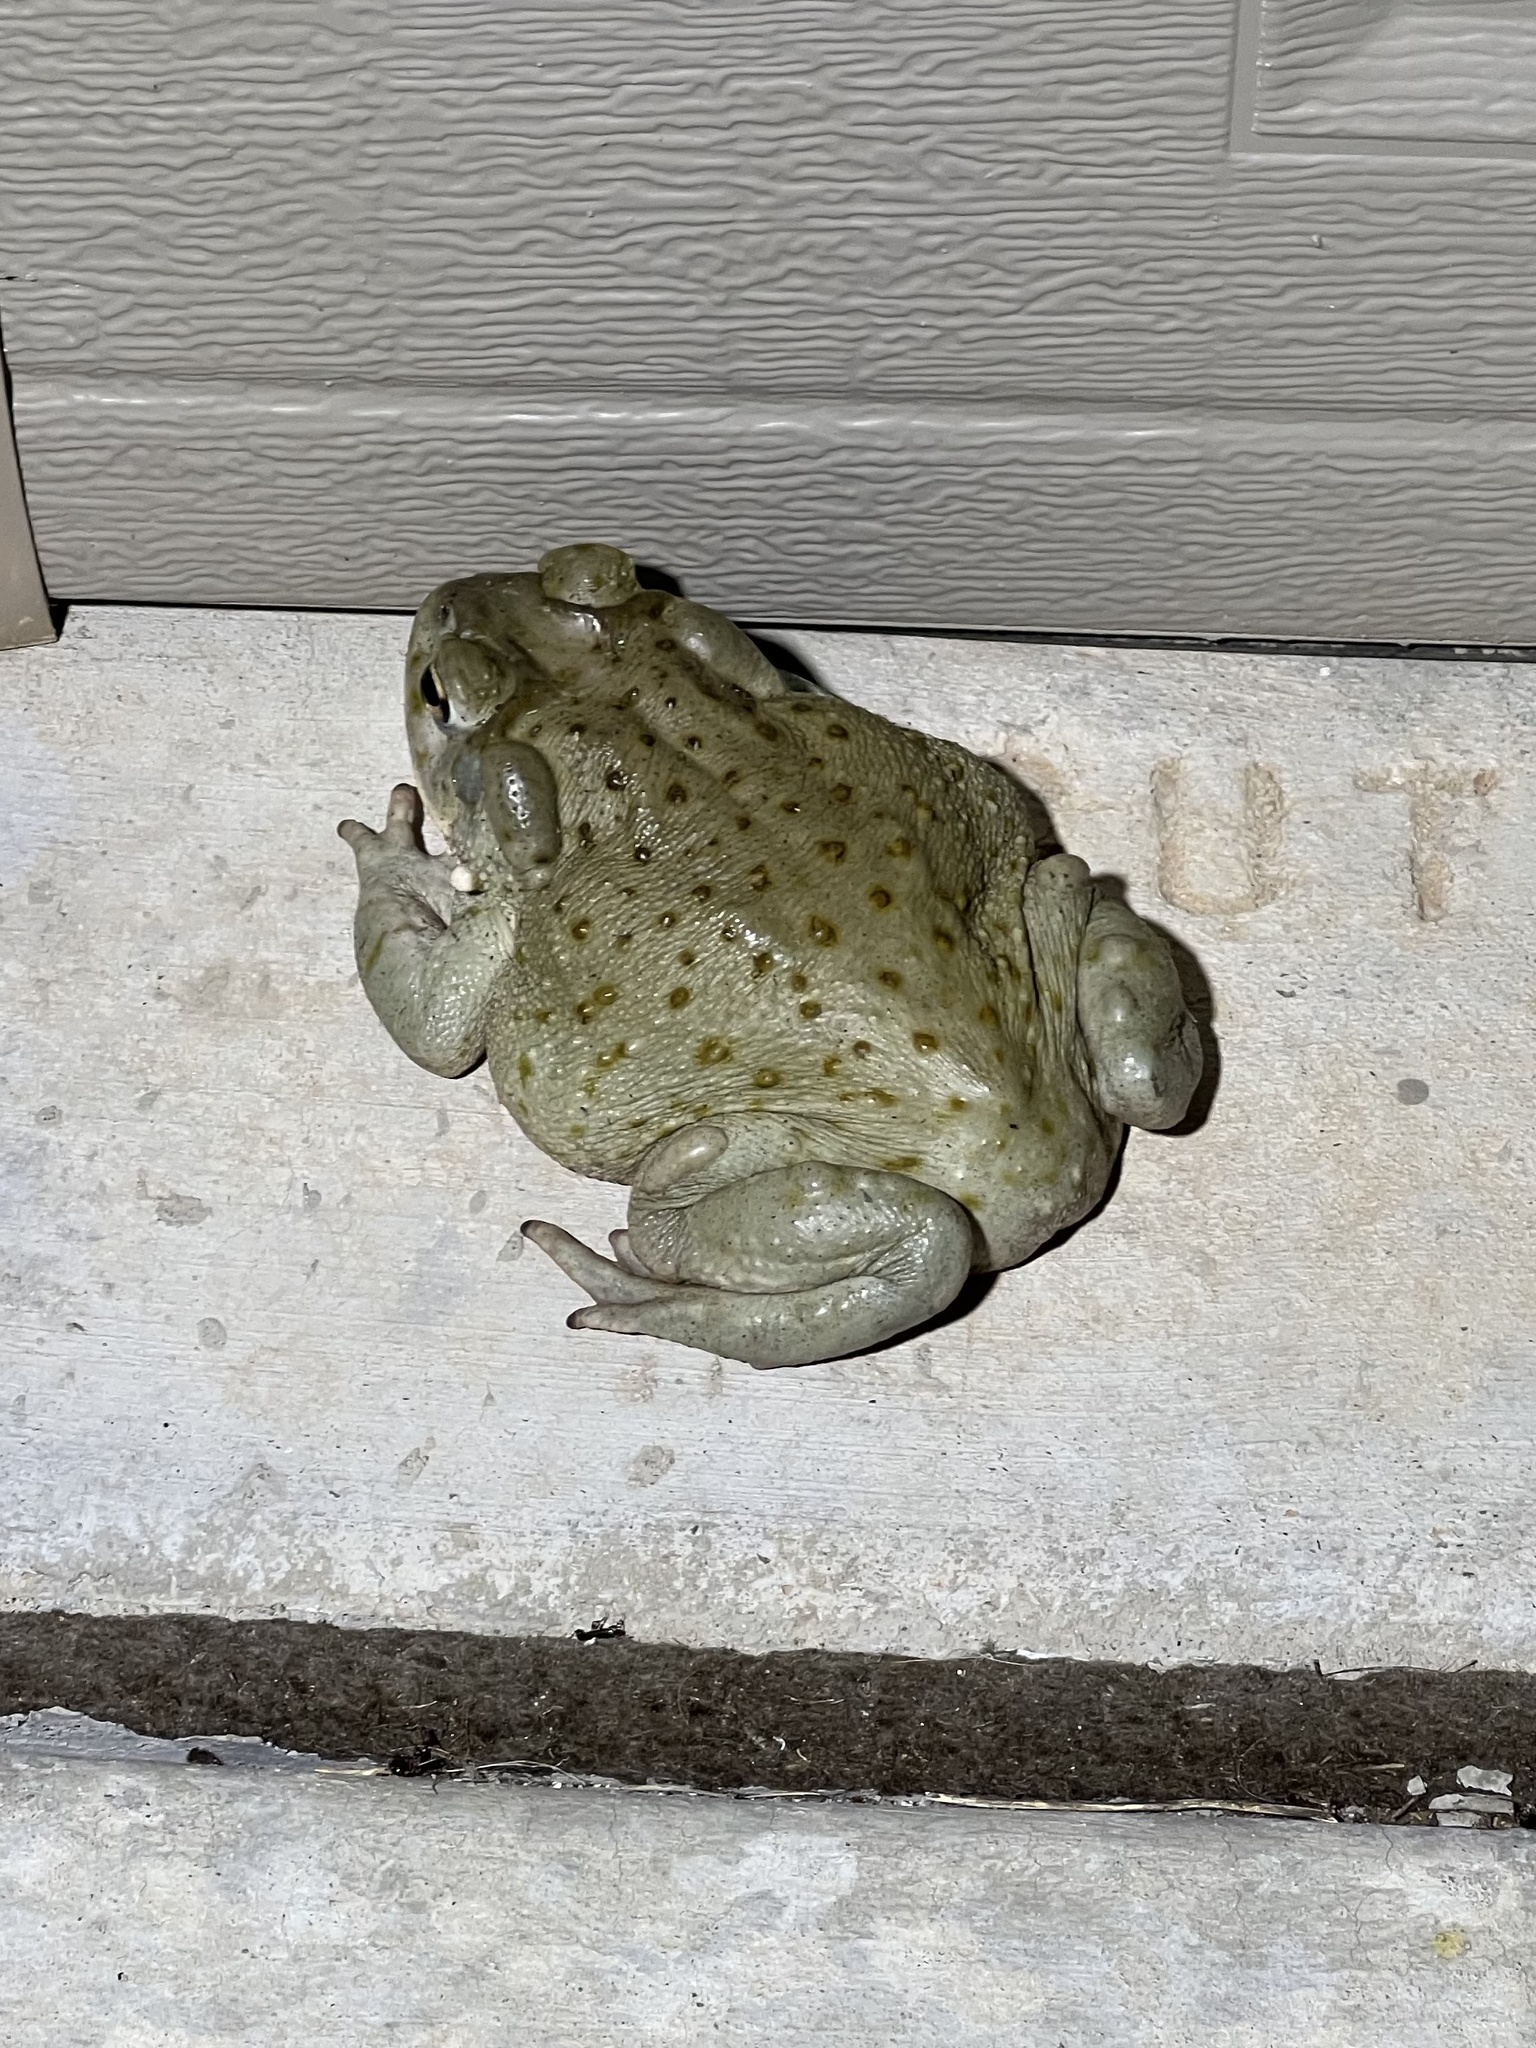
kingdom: Animalia
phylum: Chordata
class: Amphibia
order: Anura
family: Bufonidae
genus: Incilius
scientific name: Incilius alvarius
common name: Sonoran desert toad
